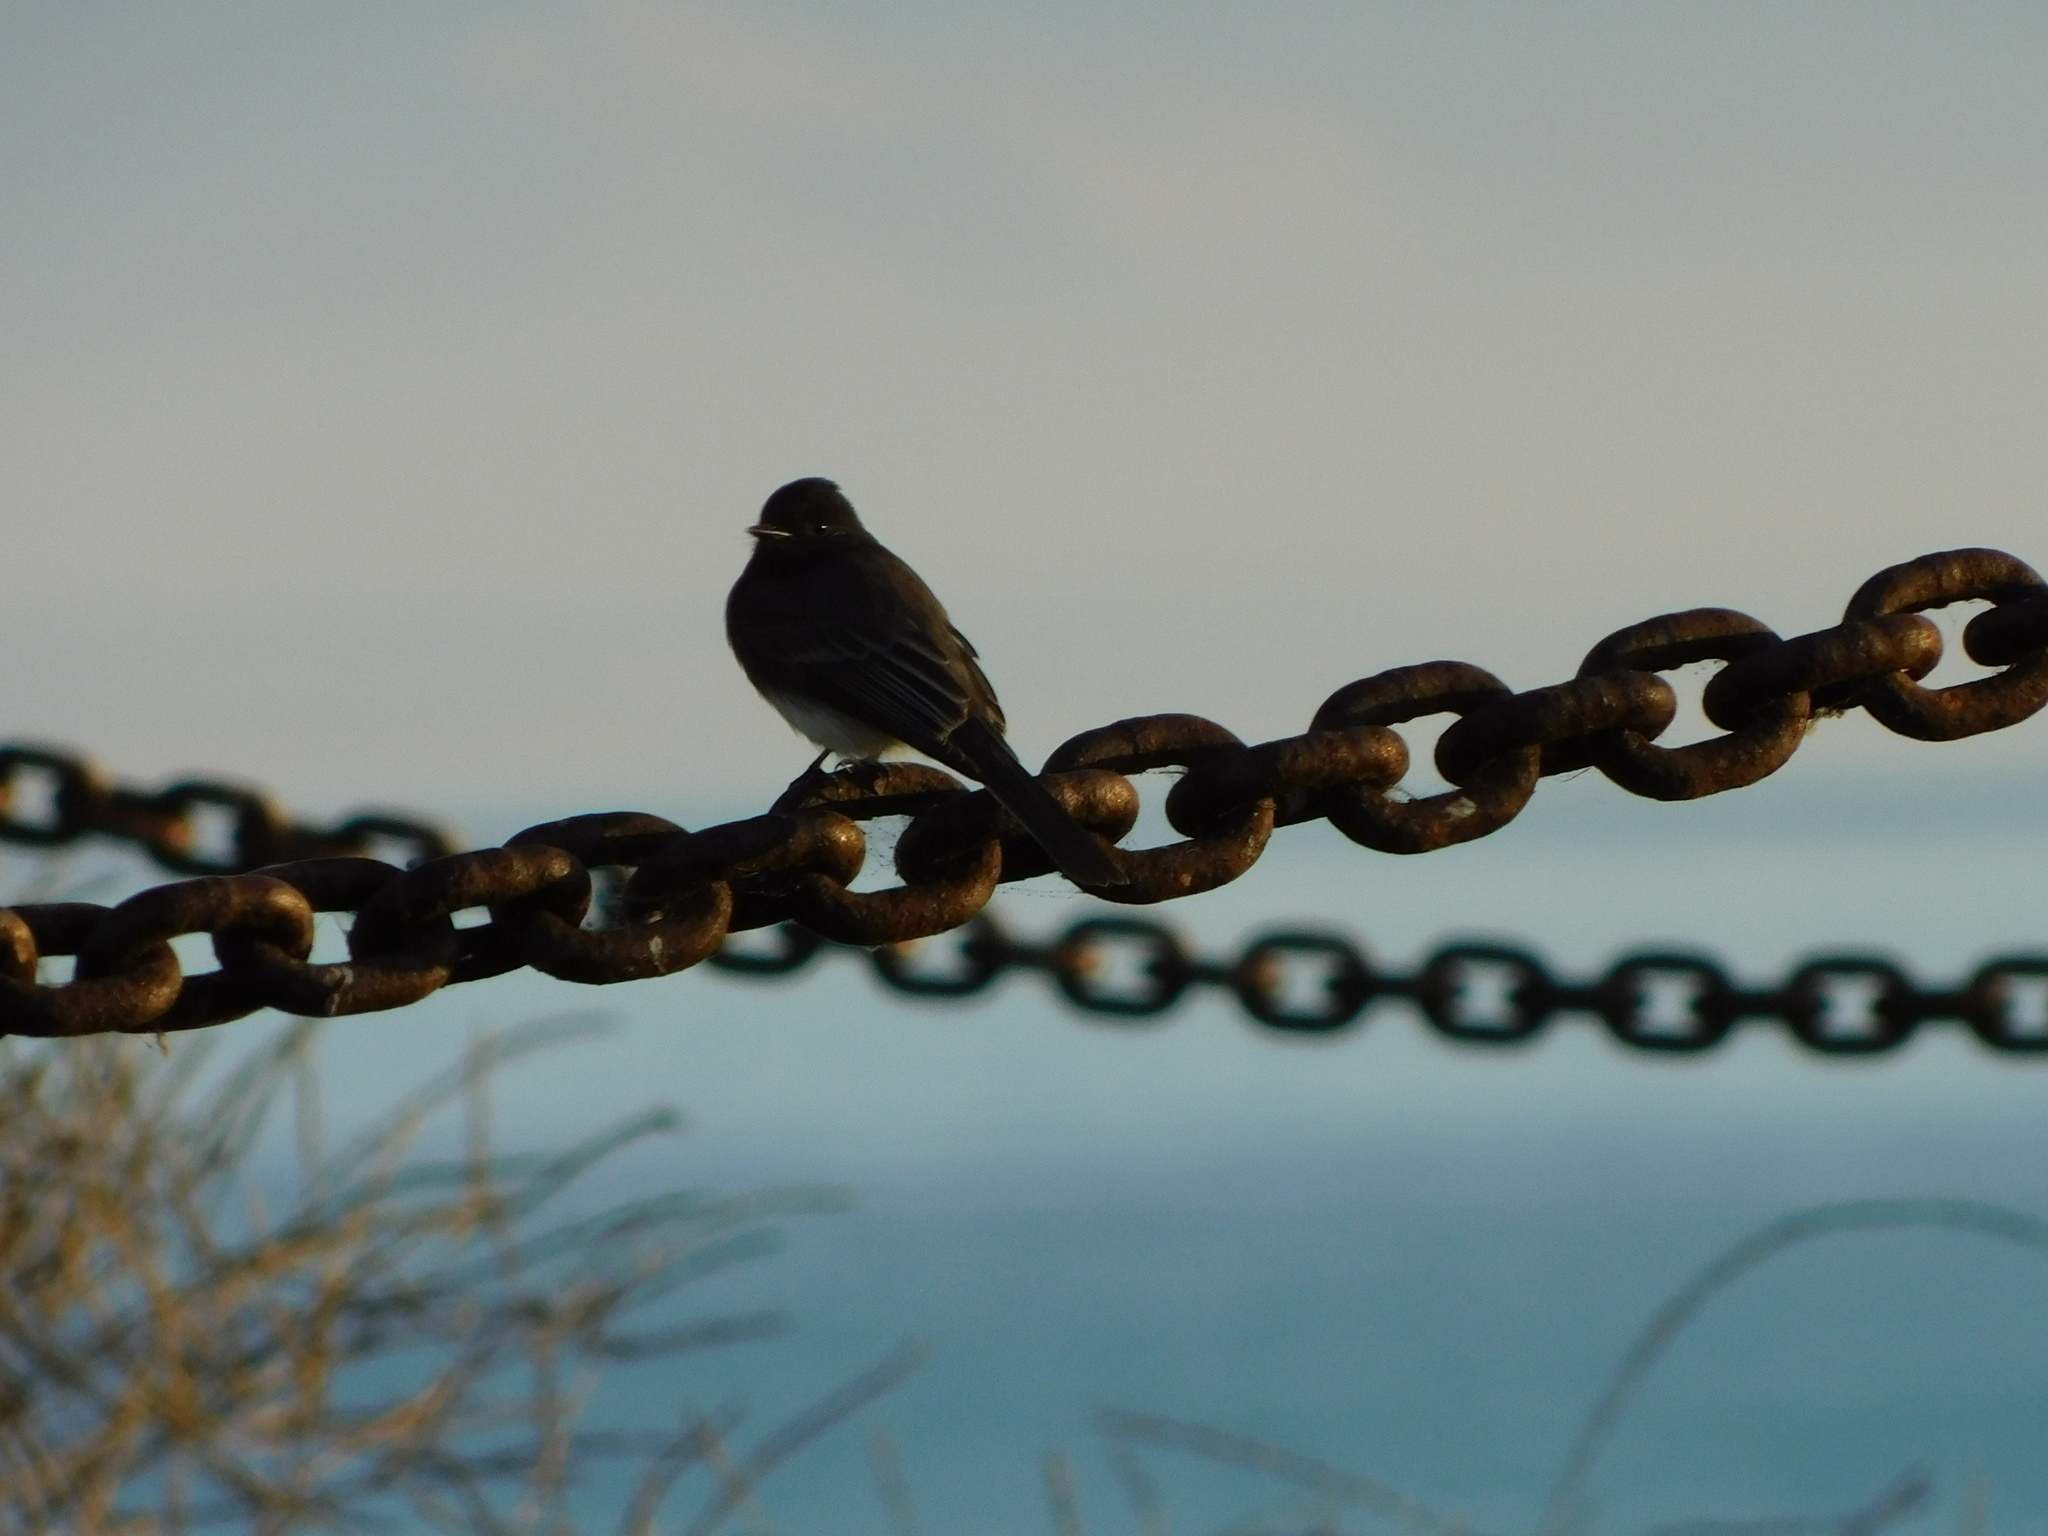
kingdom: Animalia
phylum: Chordata
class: Aves
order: Passeriformes
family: Tyrannidae
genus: Sayornis
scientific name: Sayornis nigricans
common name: Black phoebe
